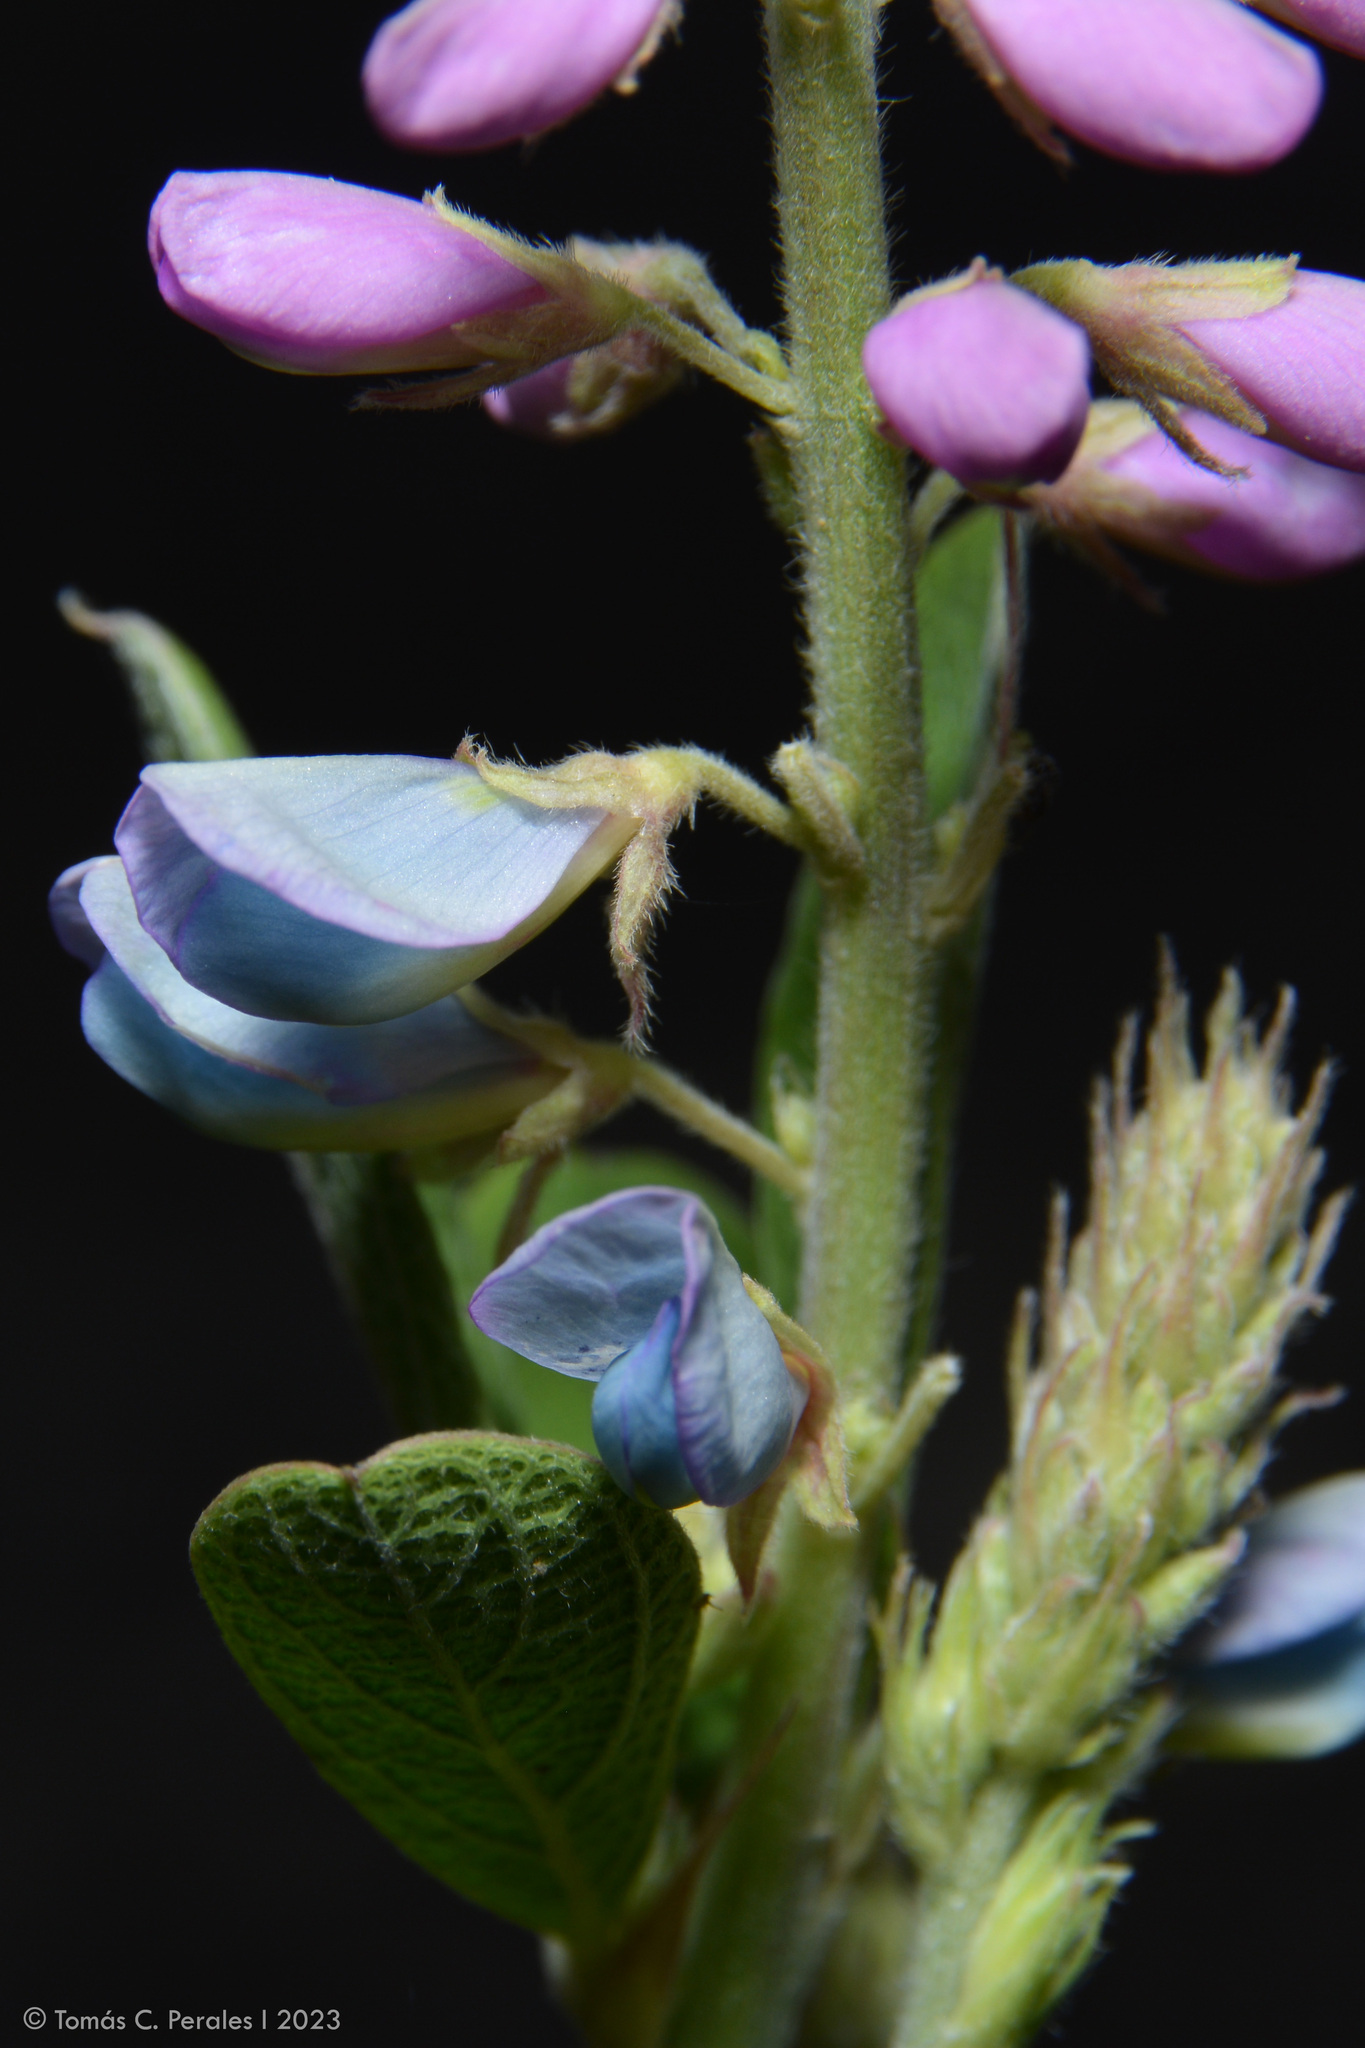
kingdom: Plantae
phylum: Tracheophyta
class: Magnoliopsida
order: Fabales
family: Fabaceae
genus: Desmodium
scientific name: Desmodium cuneatum
